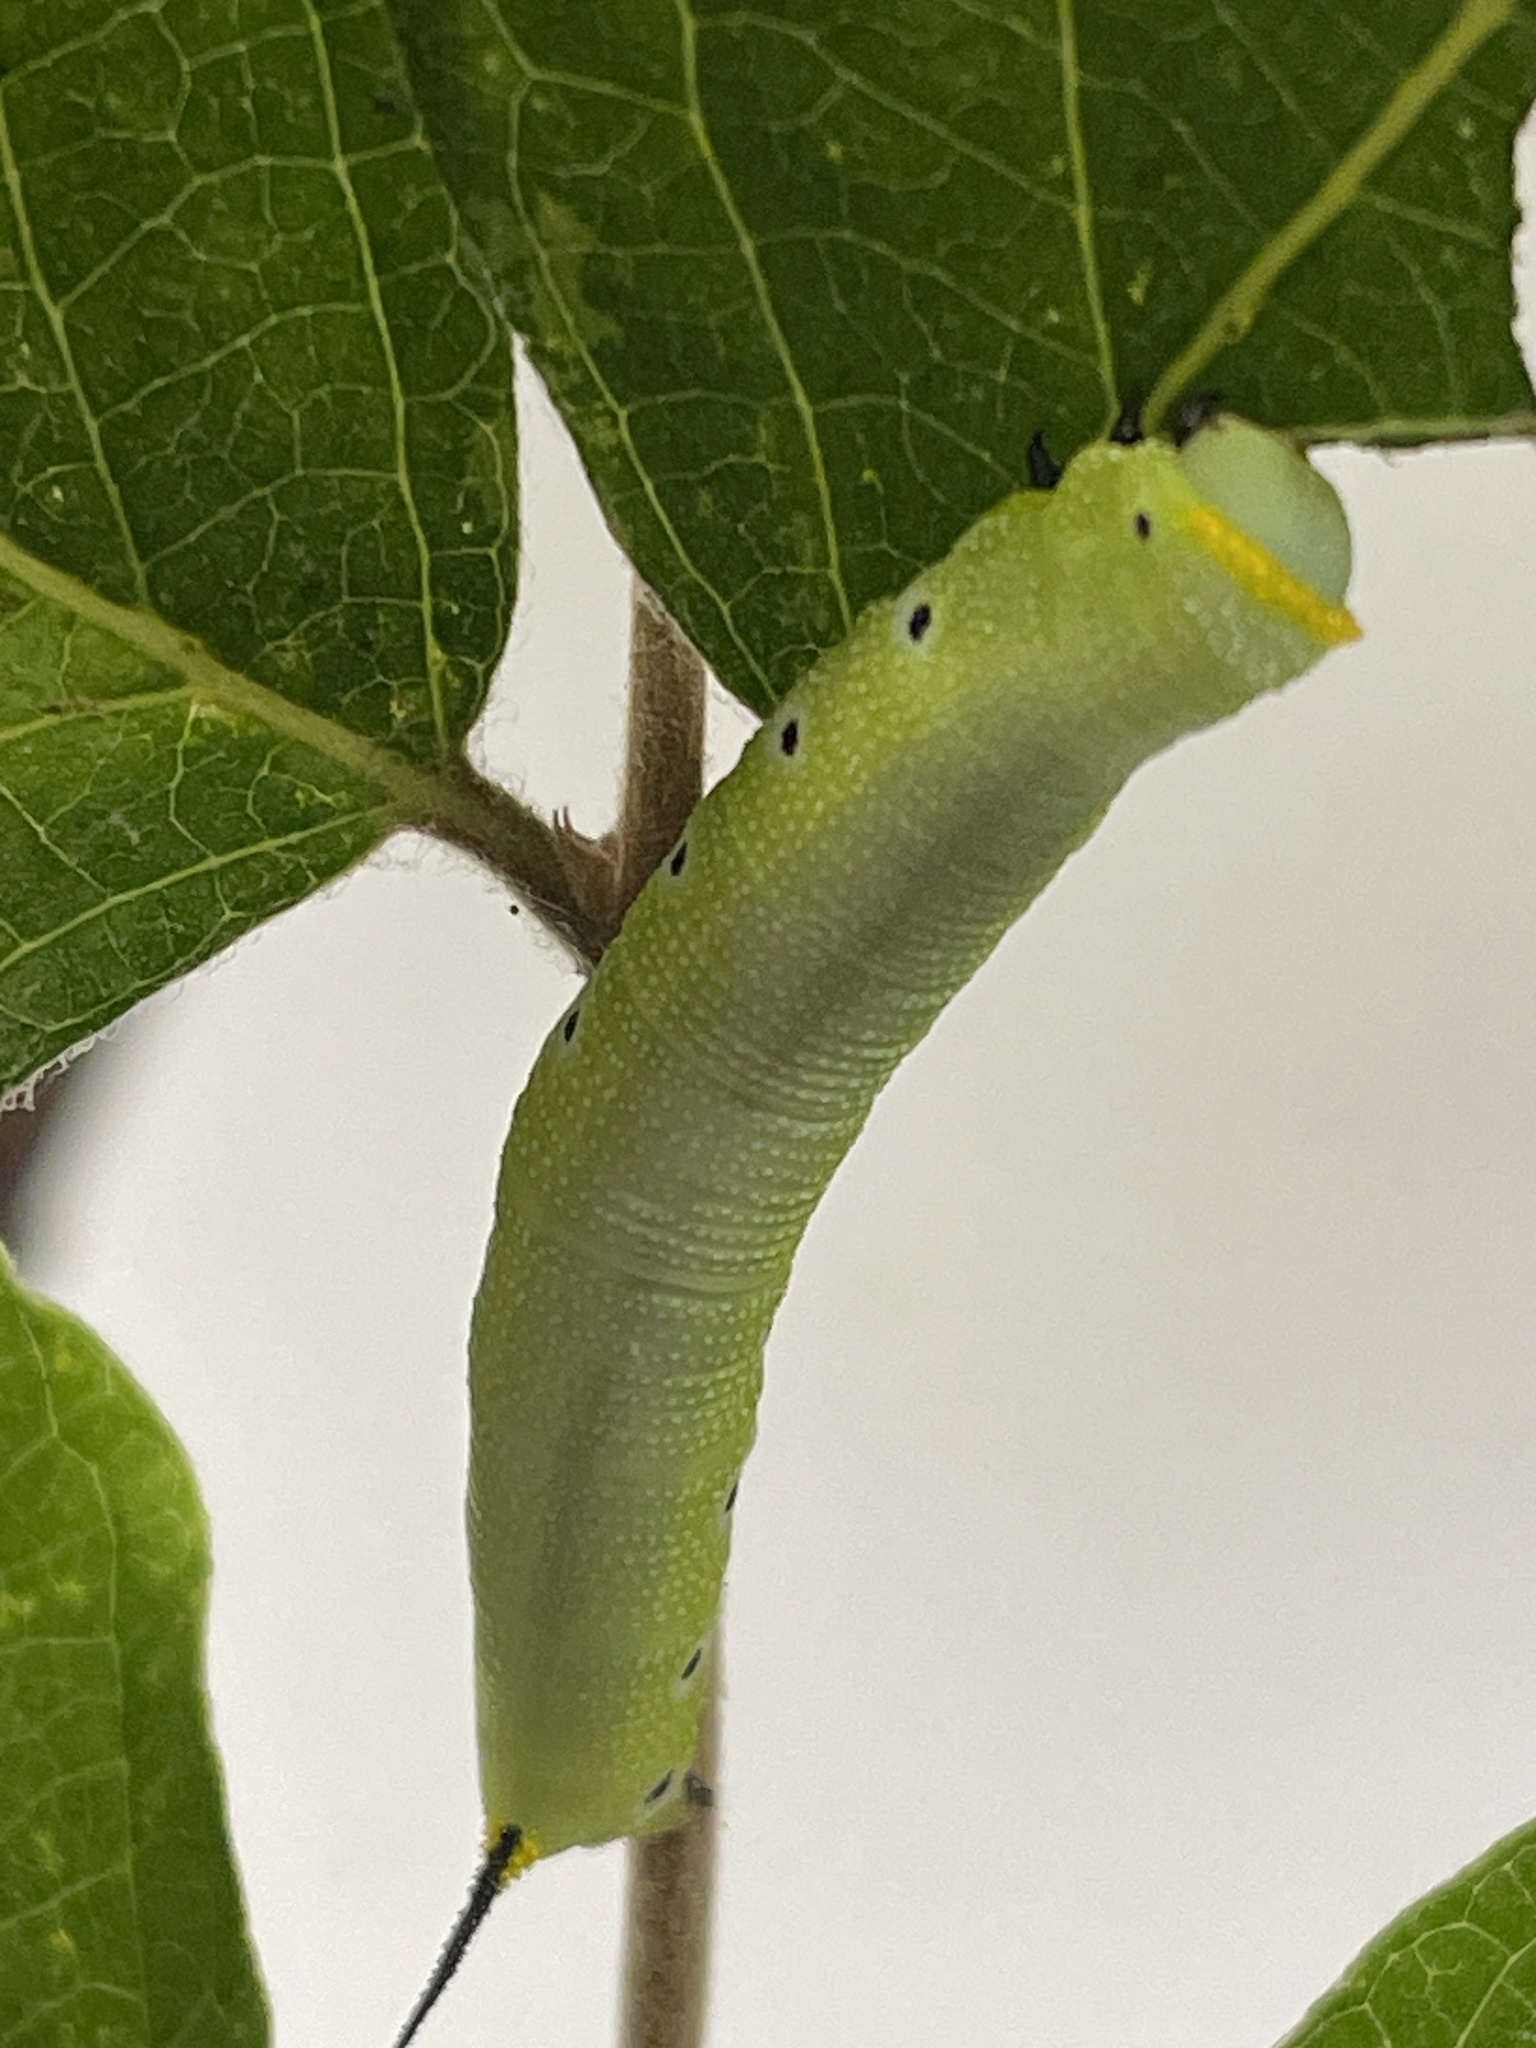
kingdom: Animalia
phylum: Arthropoda
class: Insecta
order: Lepidoptera
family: Sphingidae
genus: Hemaris
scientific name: Hemaris diffinis
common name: Bumblebee moth
